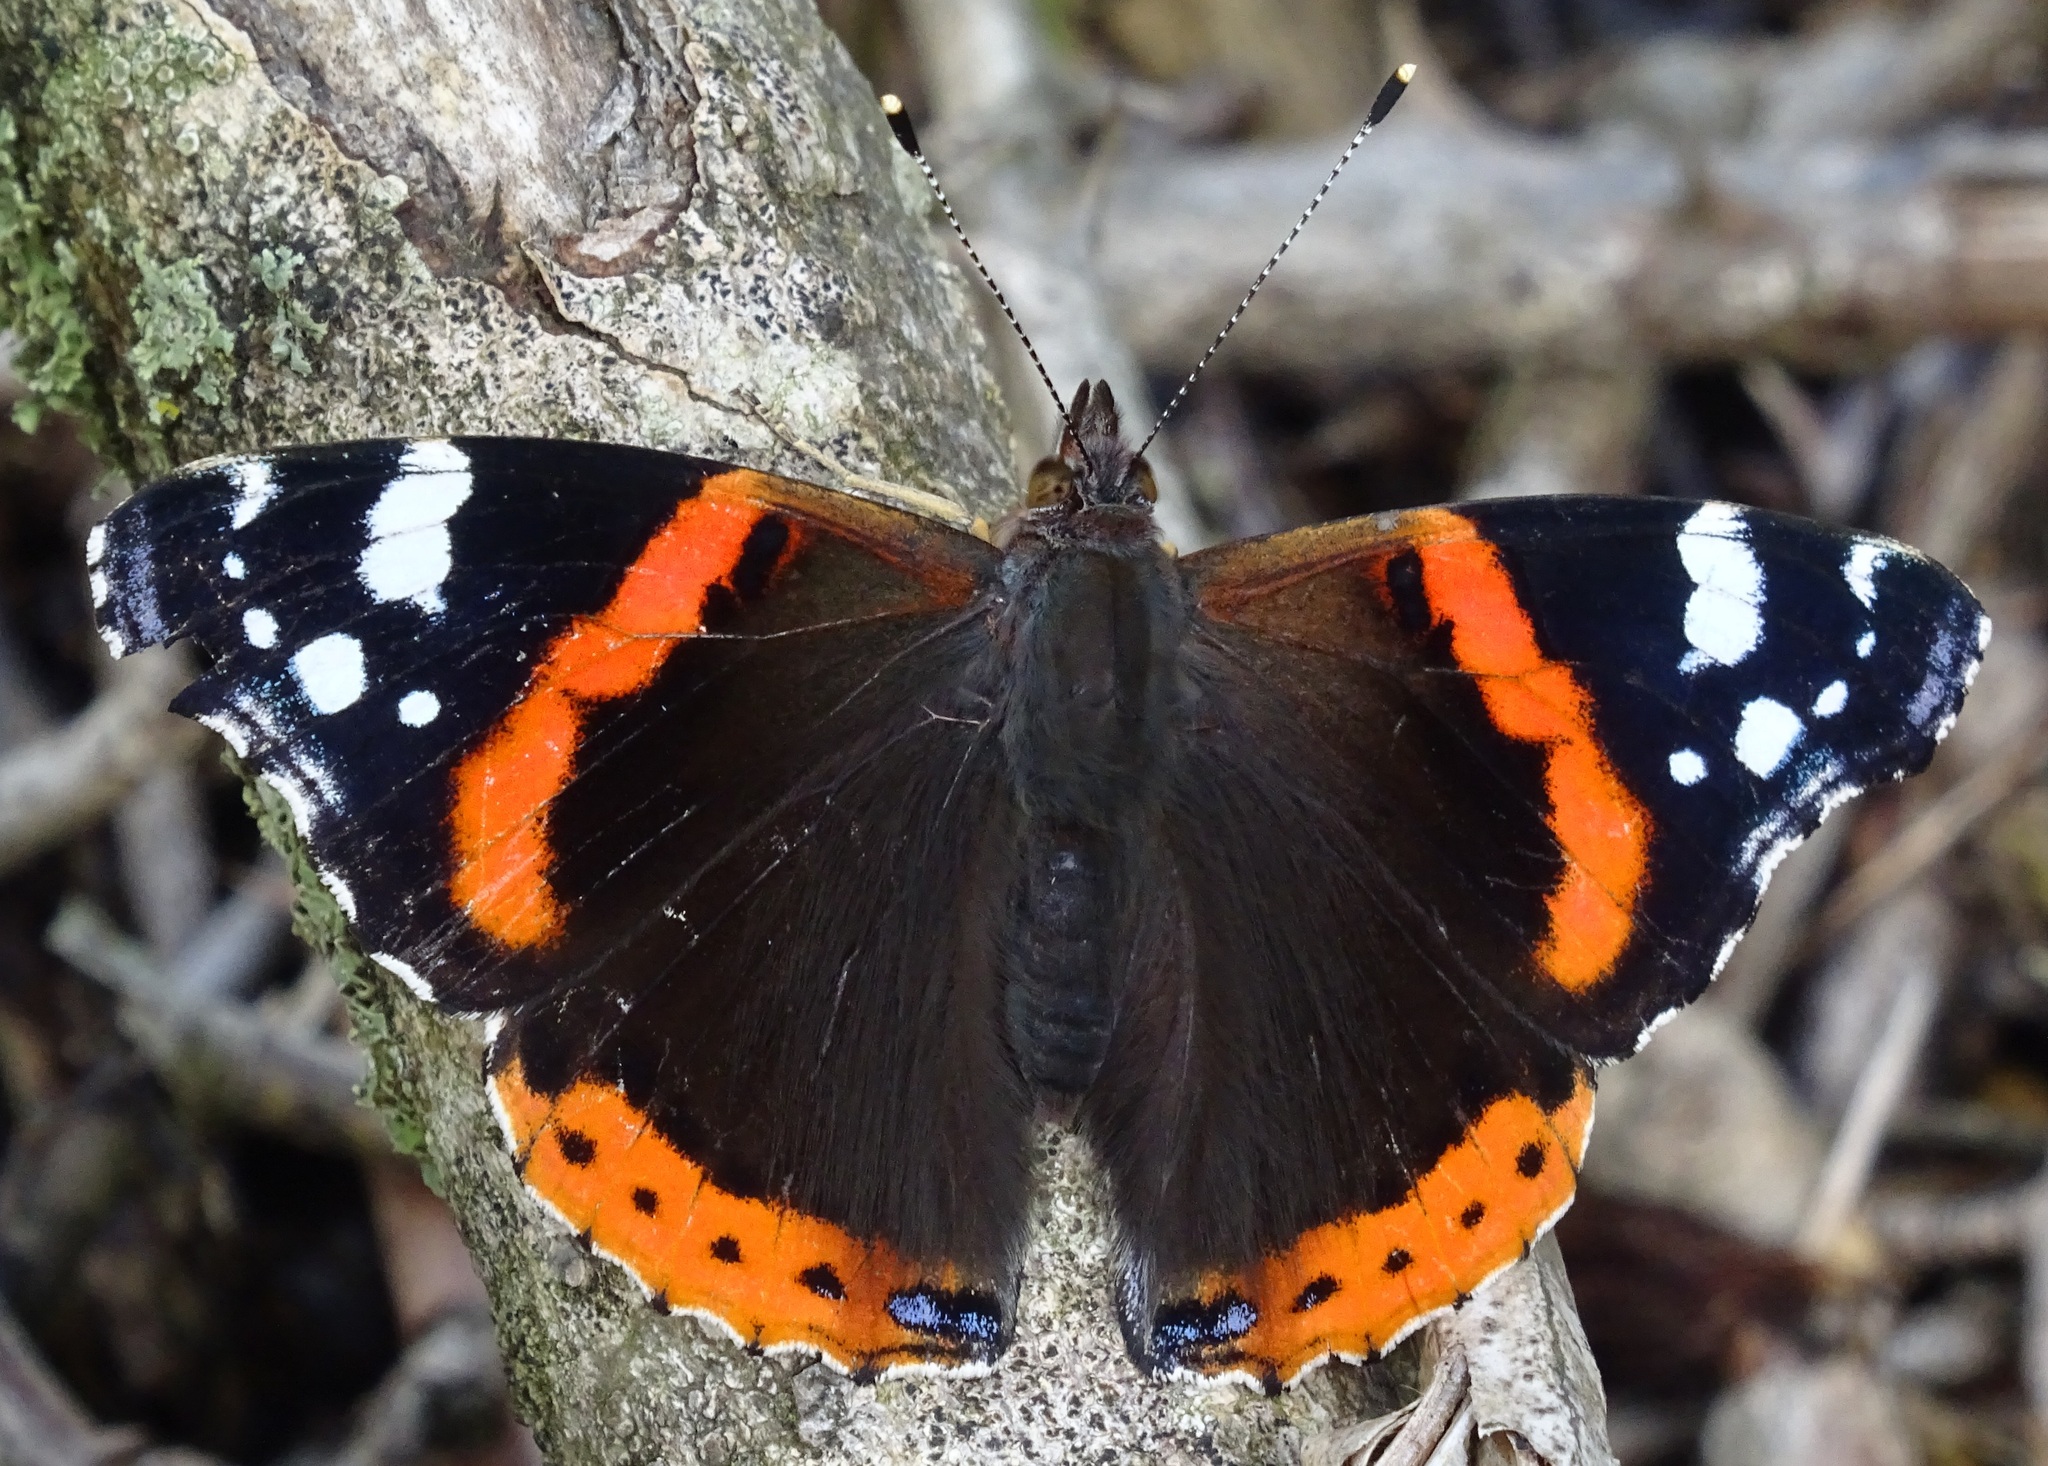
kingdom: Animalia
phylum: Arthropoda
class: Insecta
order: Lepidoptera
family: Nymphalidae
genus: Vanessa
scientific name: Vanessa atalanta
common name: Red admiral
